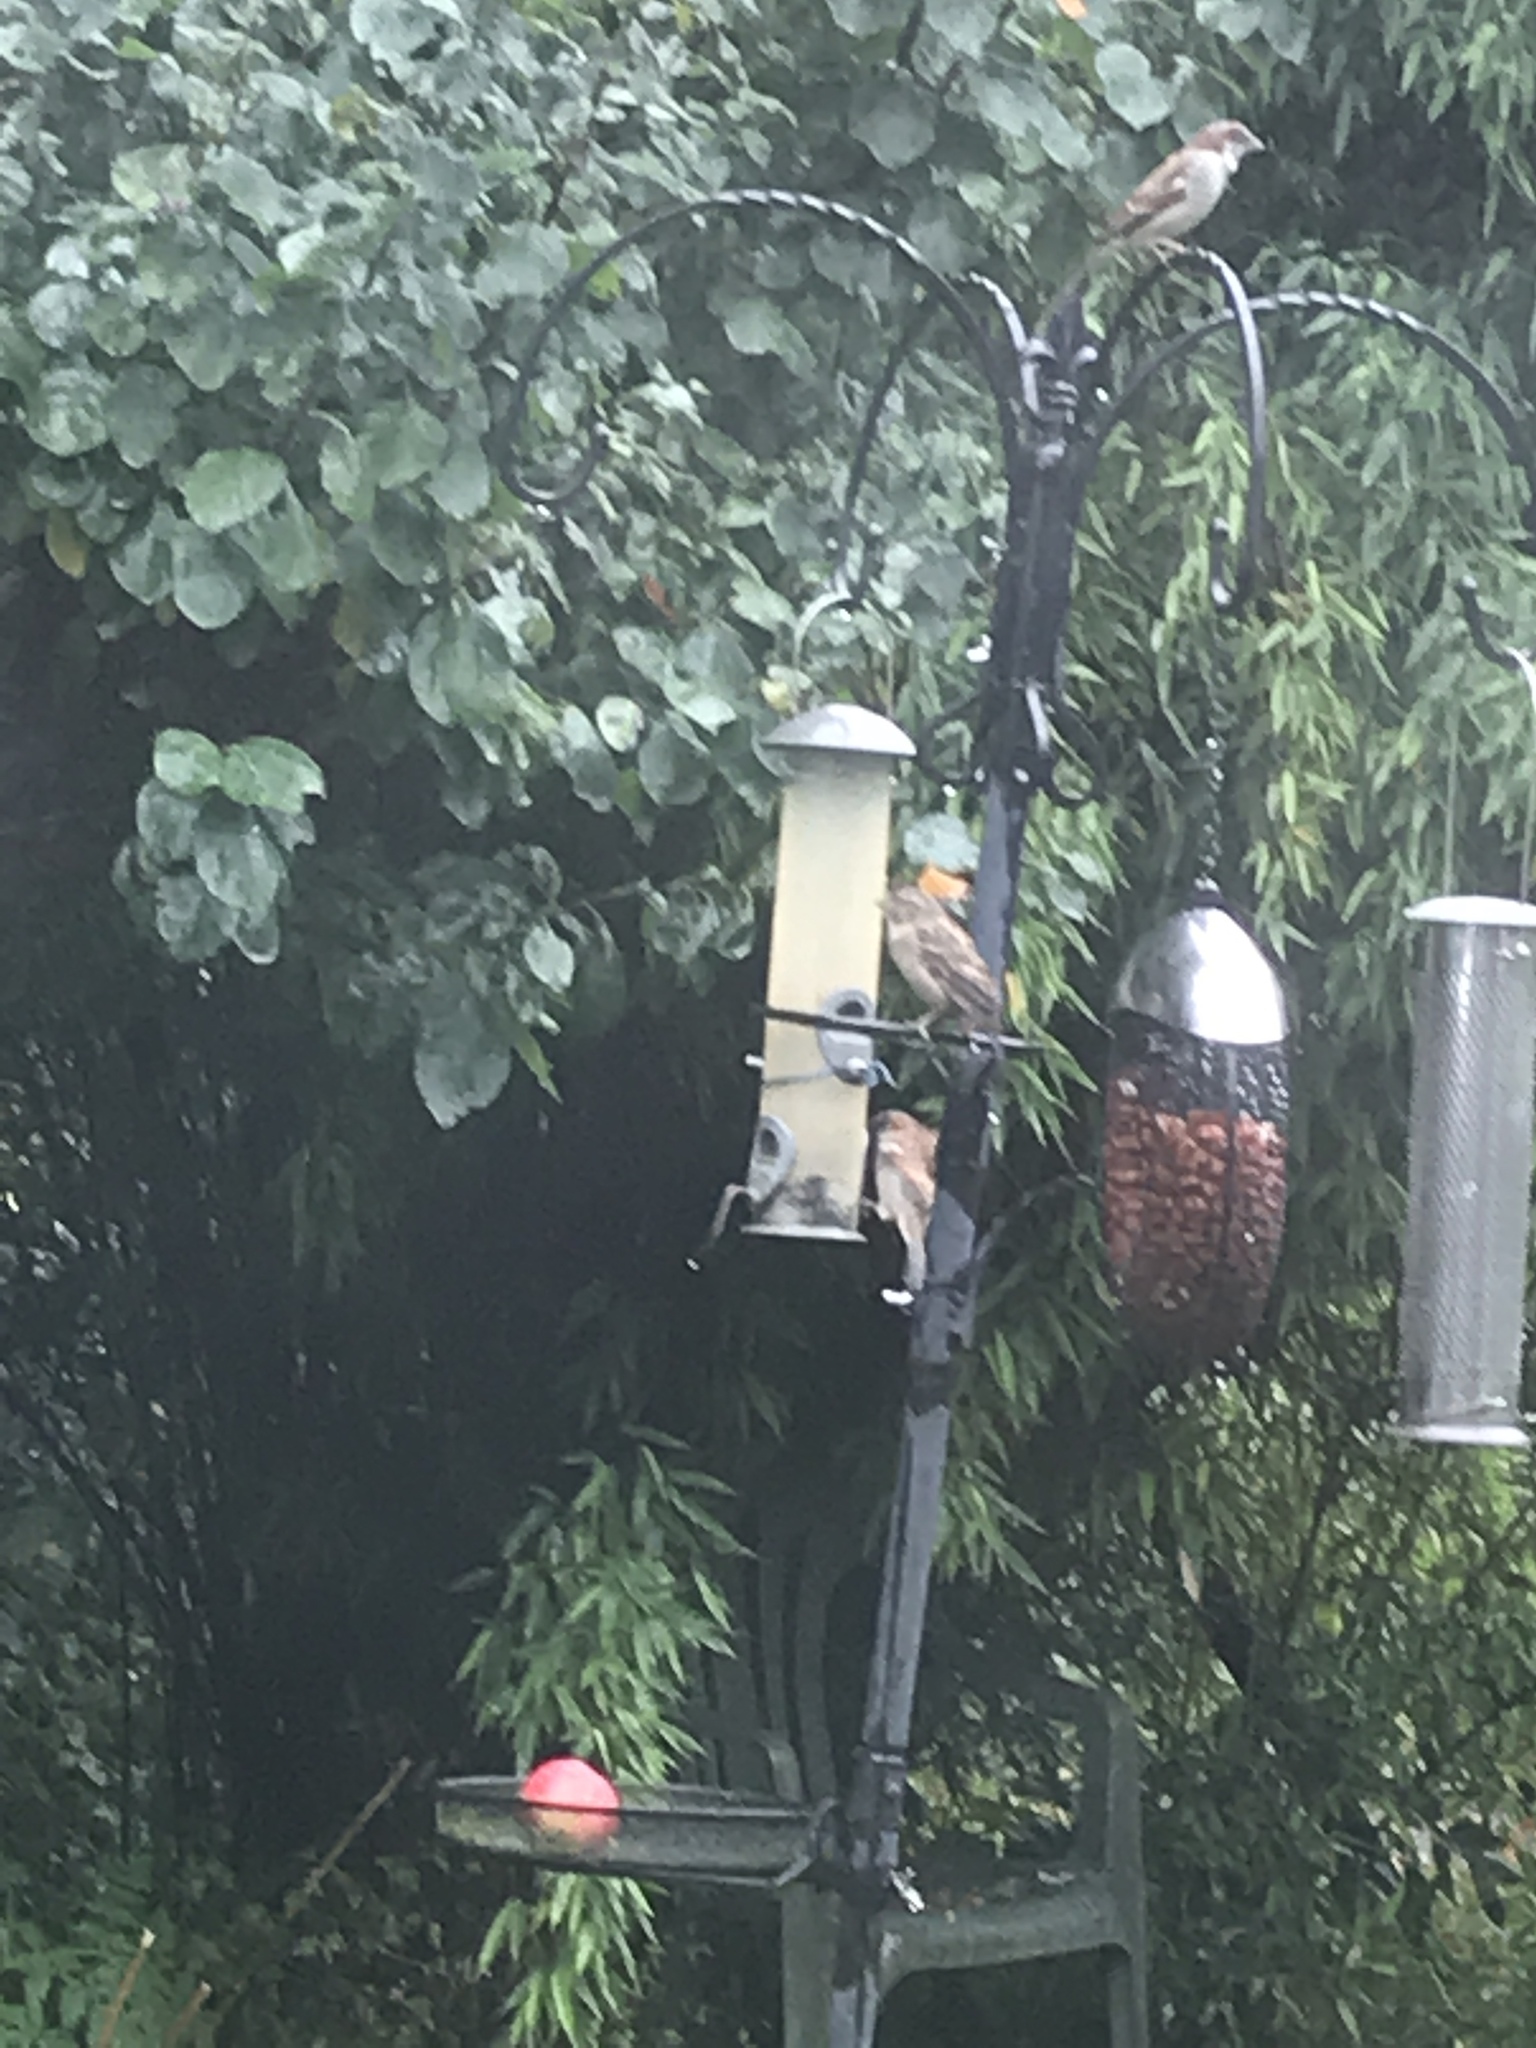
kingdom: Animalia
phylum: Chordata
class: Aves
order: Passeriformes
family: Passeridae
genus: Passer
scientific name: Passer domesticus
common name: House sparrow
